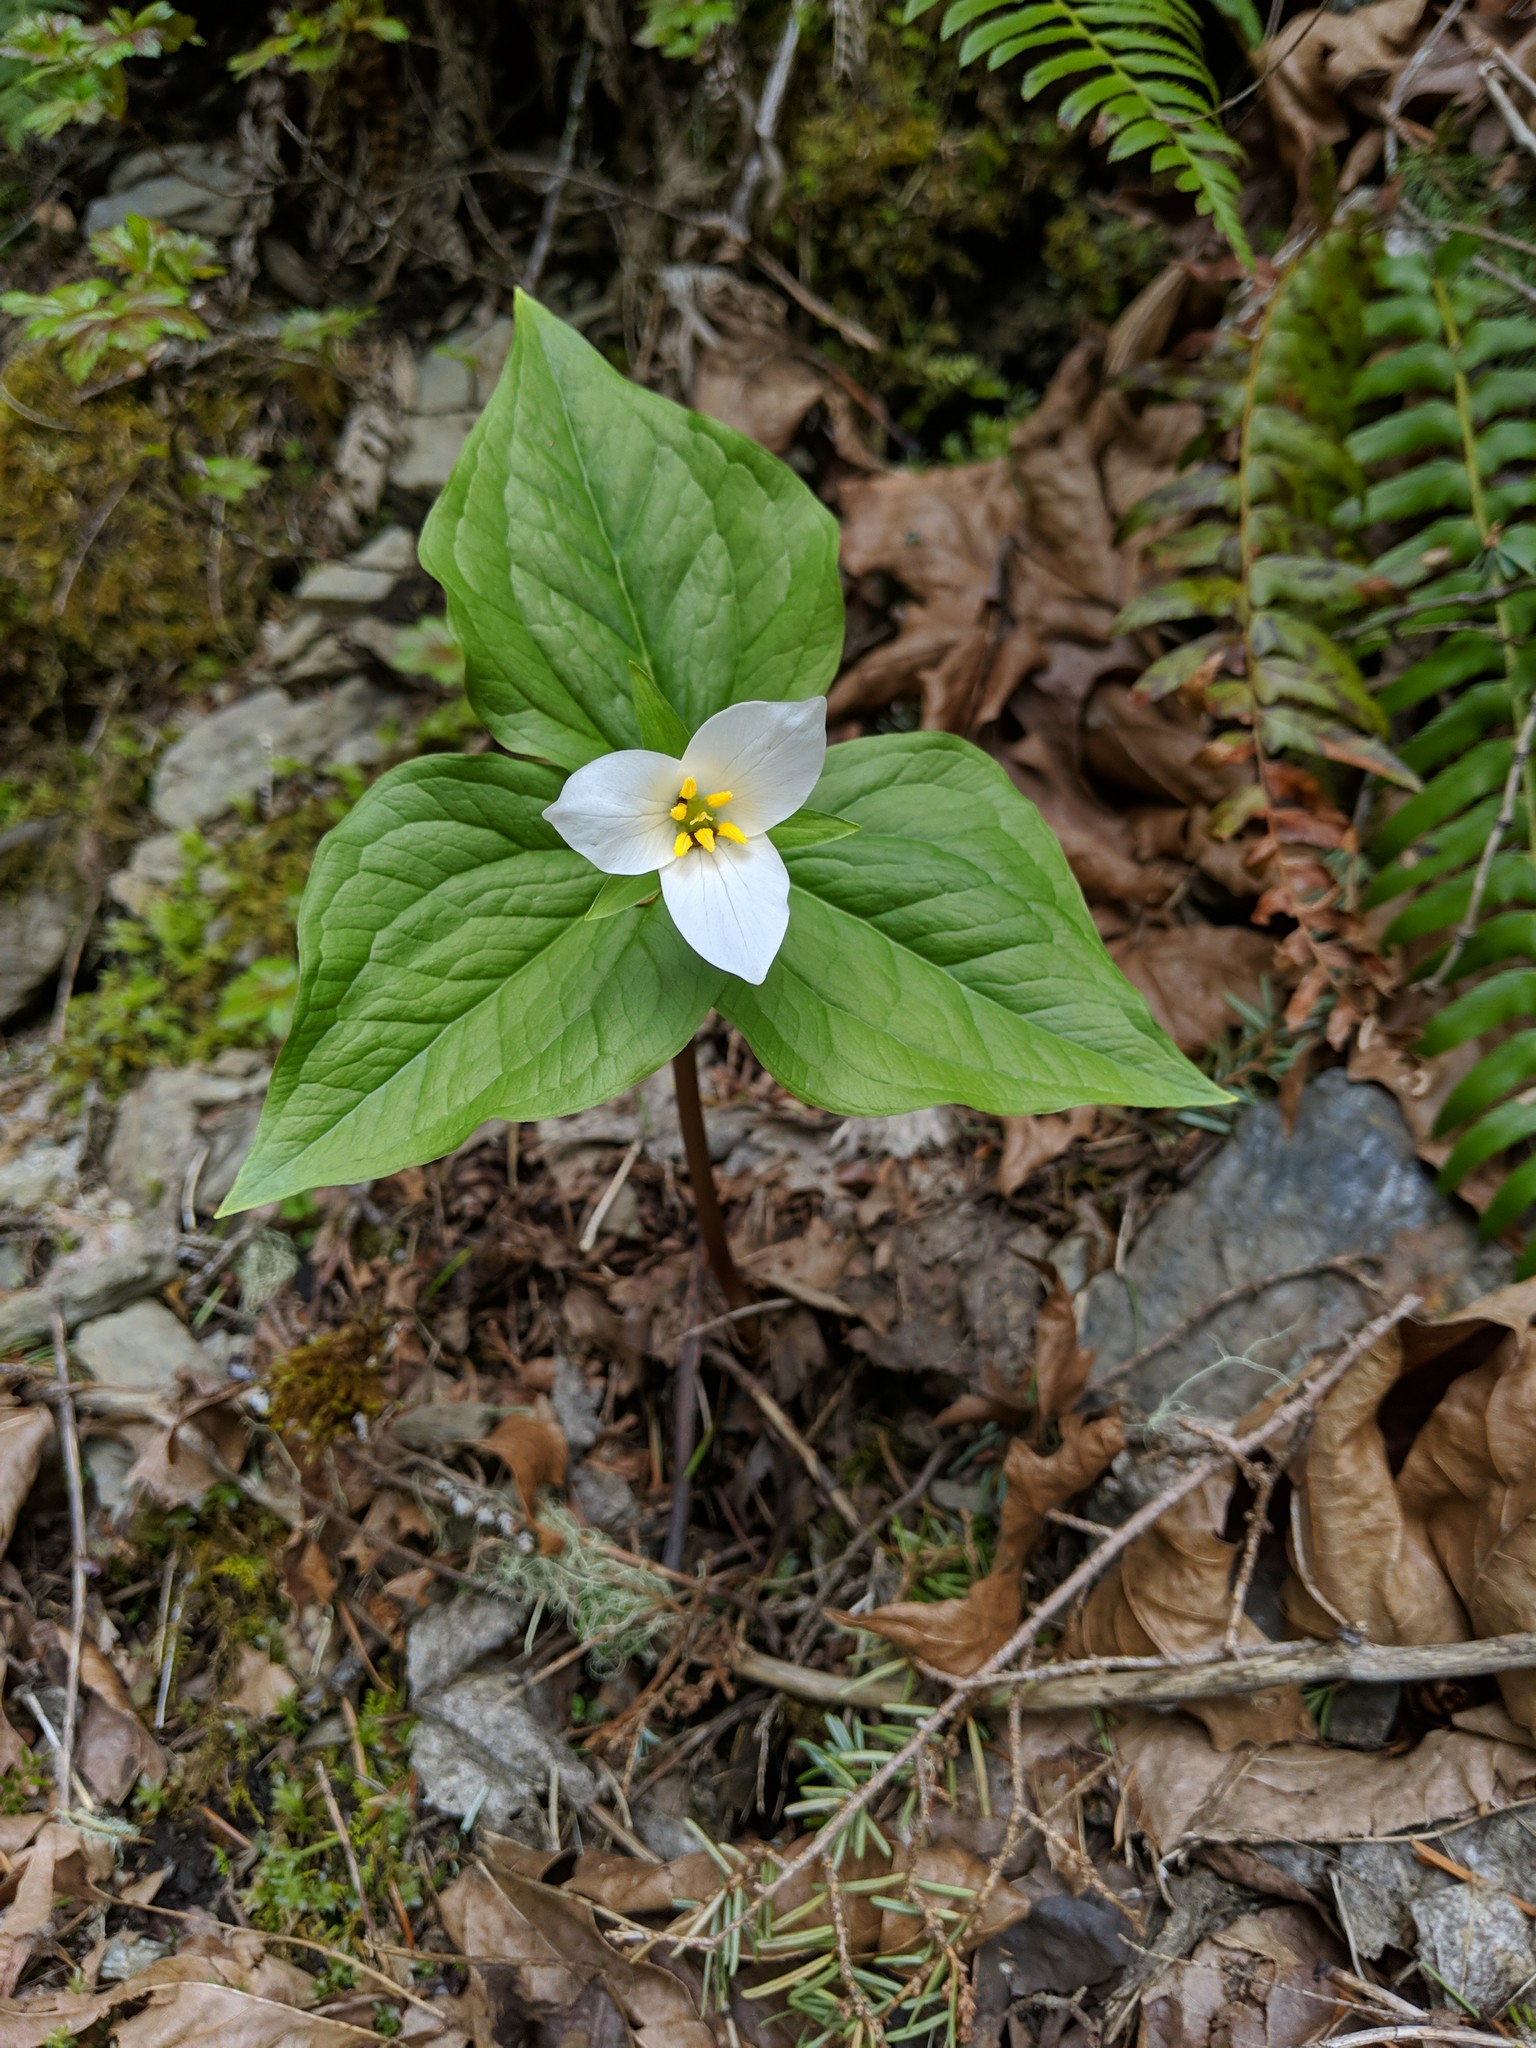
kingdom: Plantae
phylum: Tracheophyta
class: Liliopsida
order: Liliales
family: Melanthiaceae
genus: Trillium
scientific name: Trillium ovatum
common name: Pacific trillium
